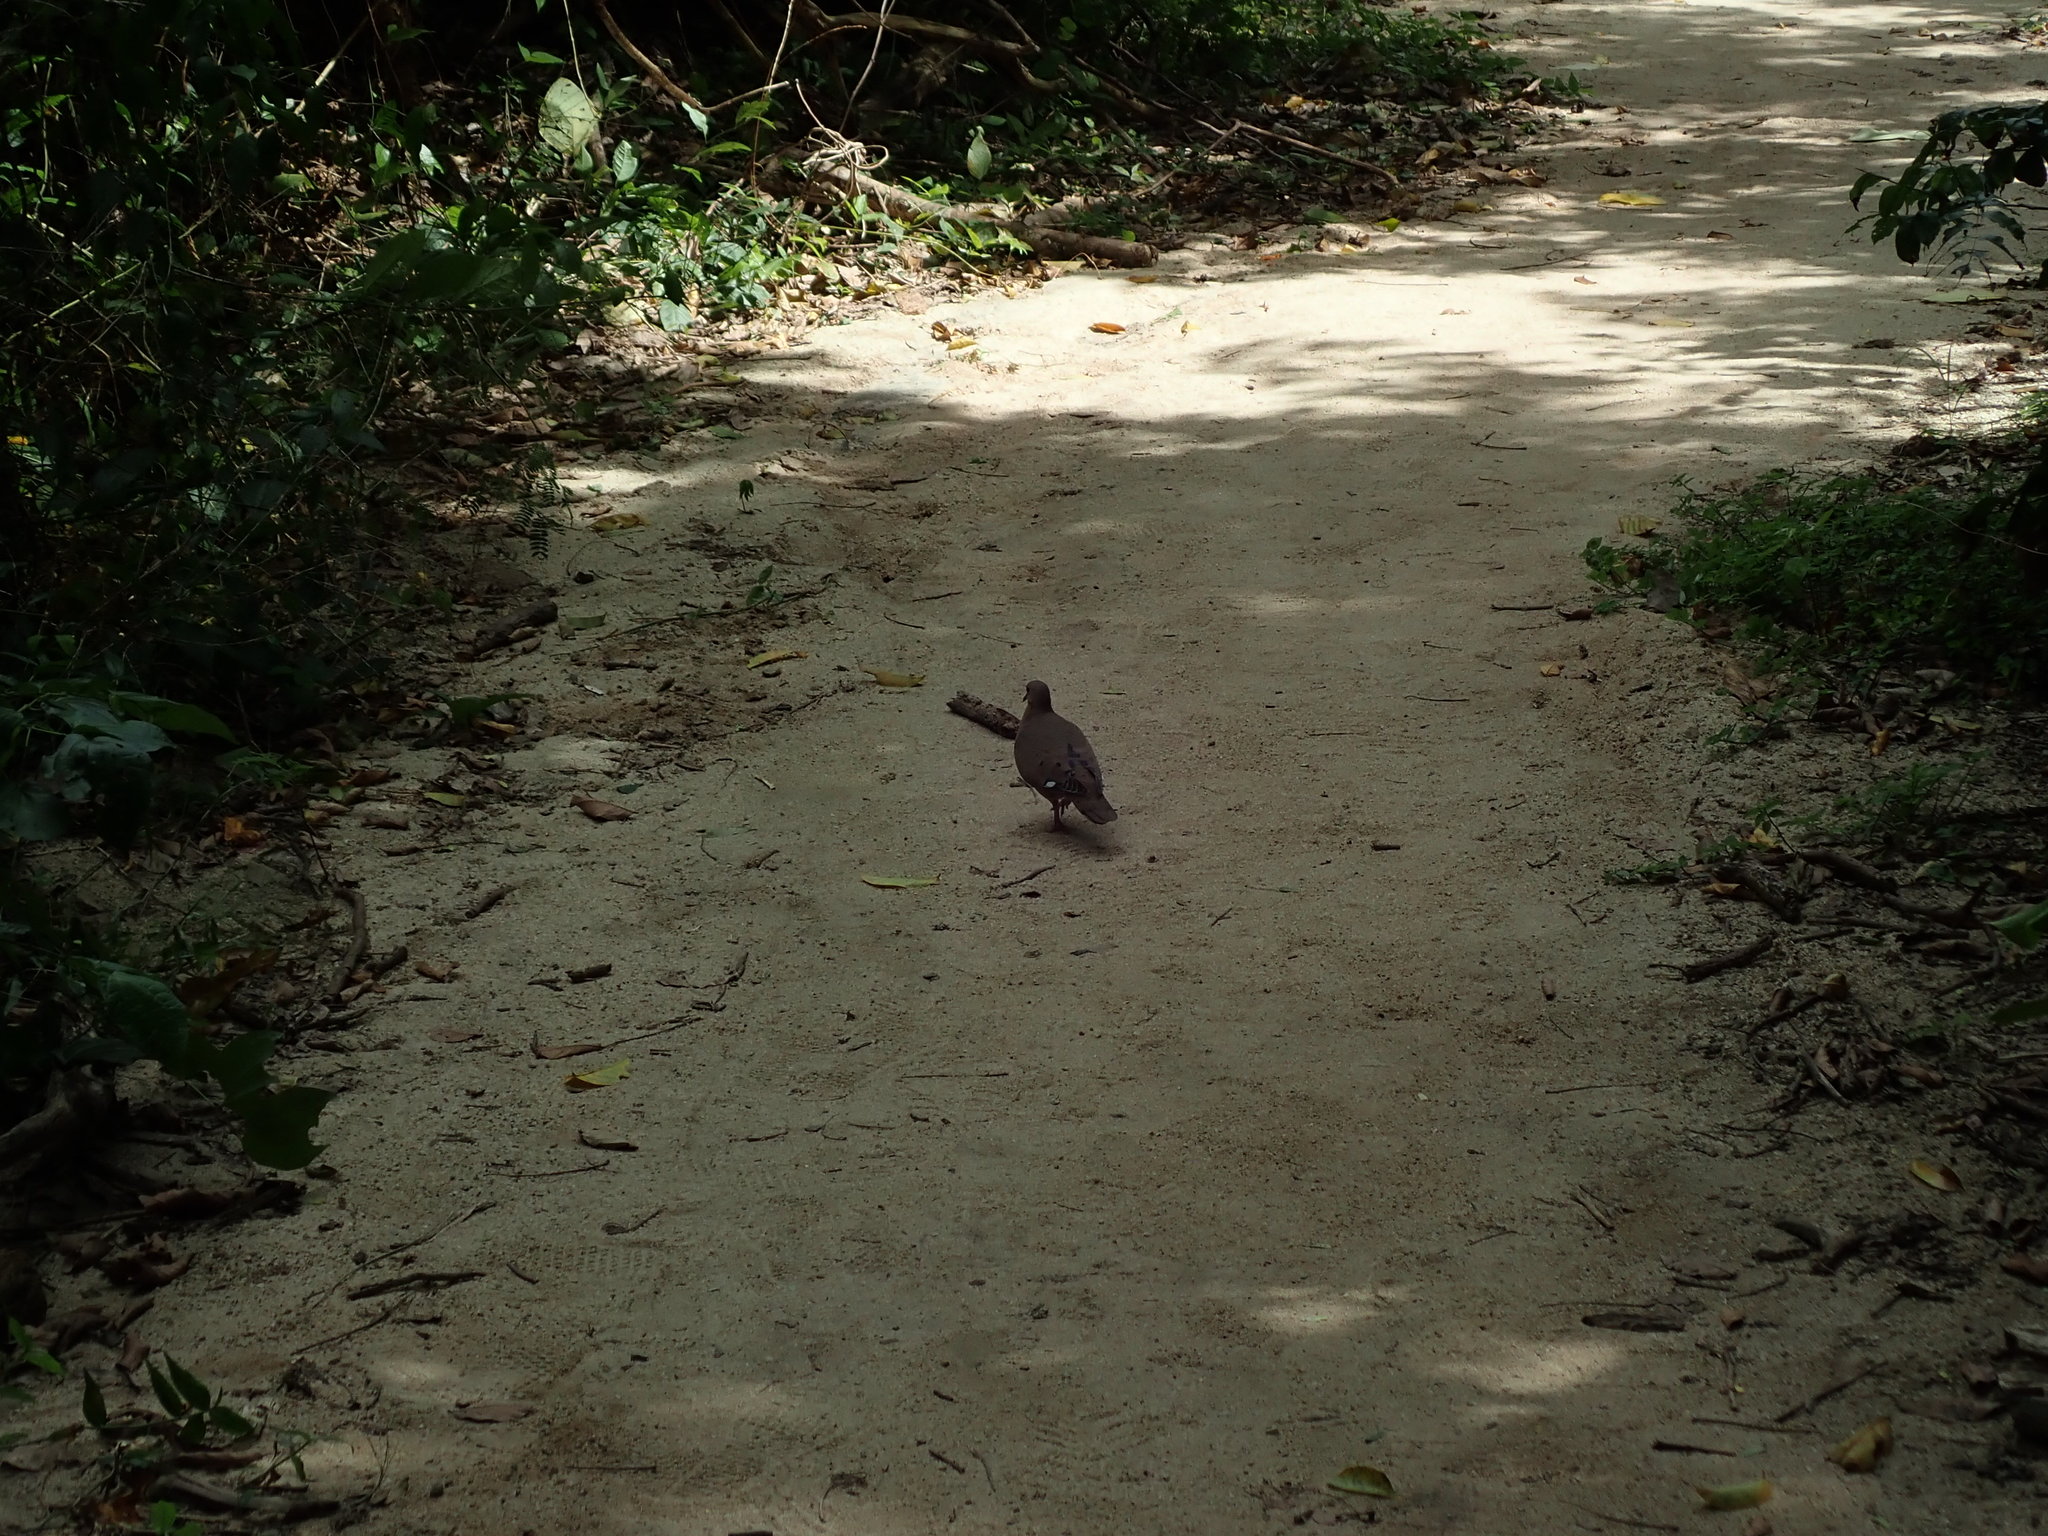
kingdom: Animalia
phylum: Chordata
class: Aves
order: Columbiformes
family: Columbidae
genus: Zenaida
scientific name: Zenaida aurita
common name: Zenaida dove
